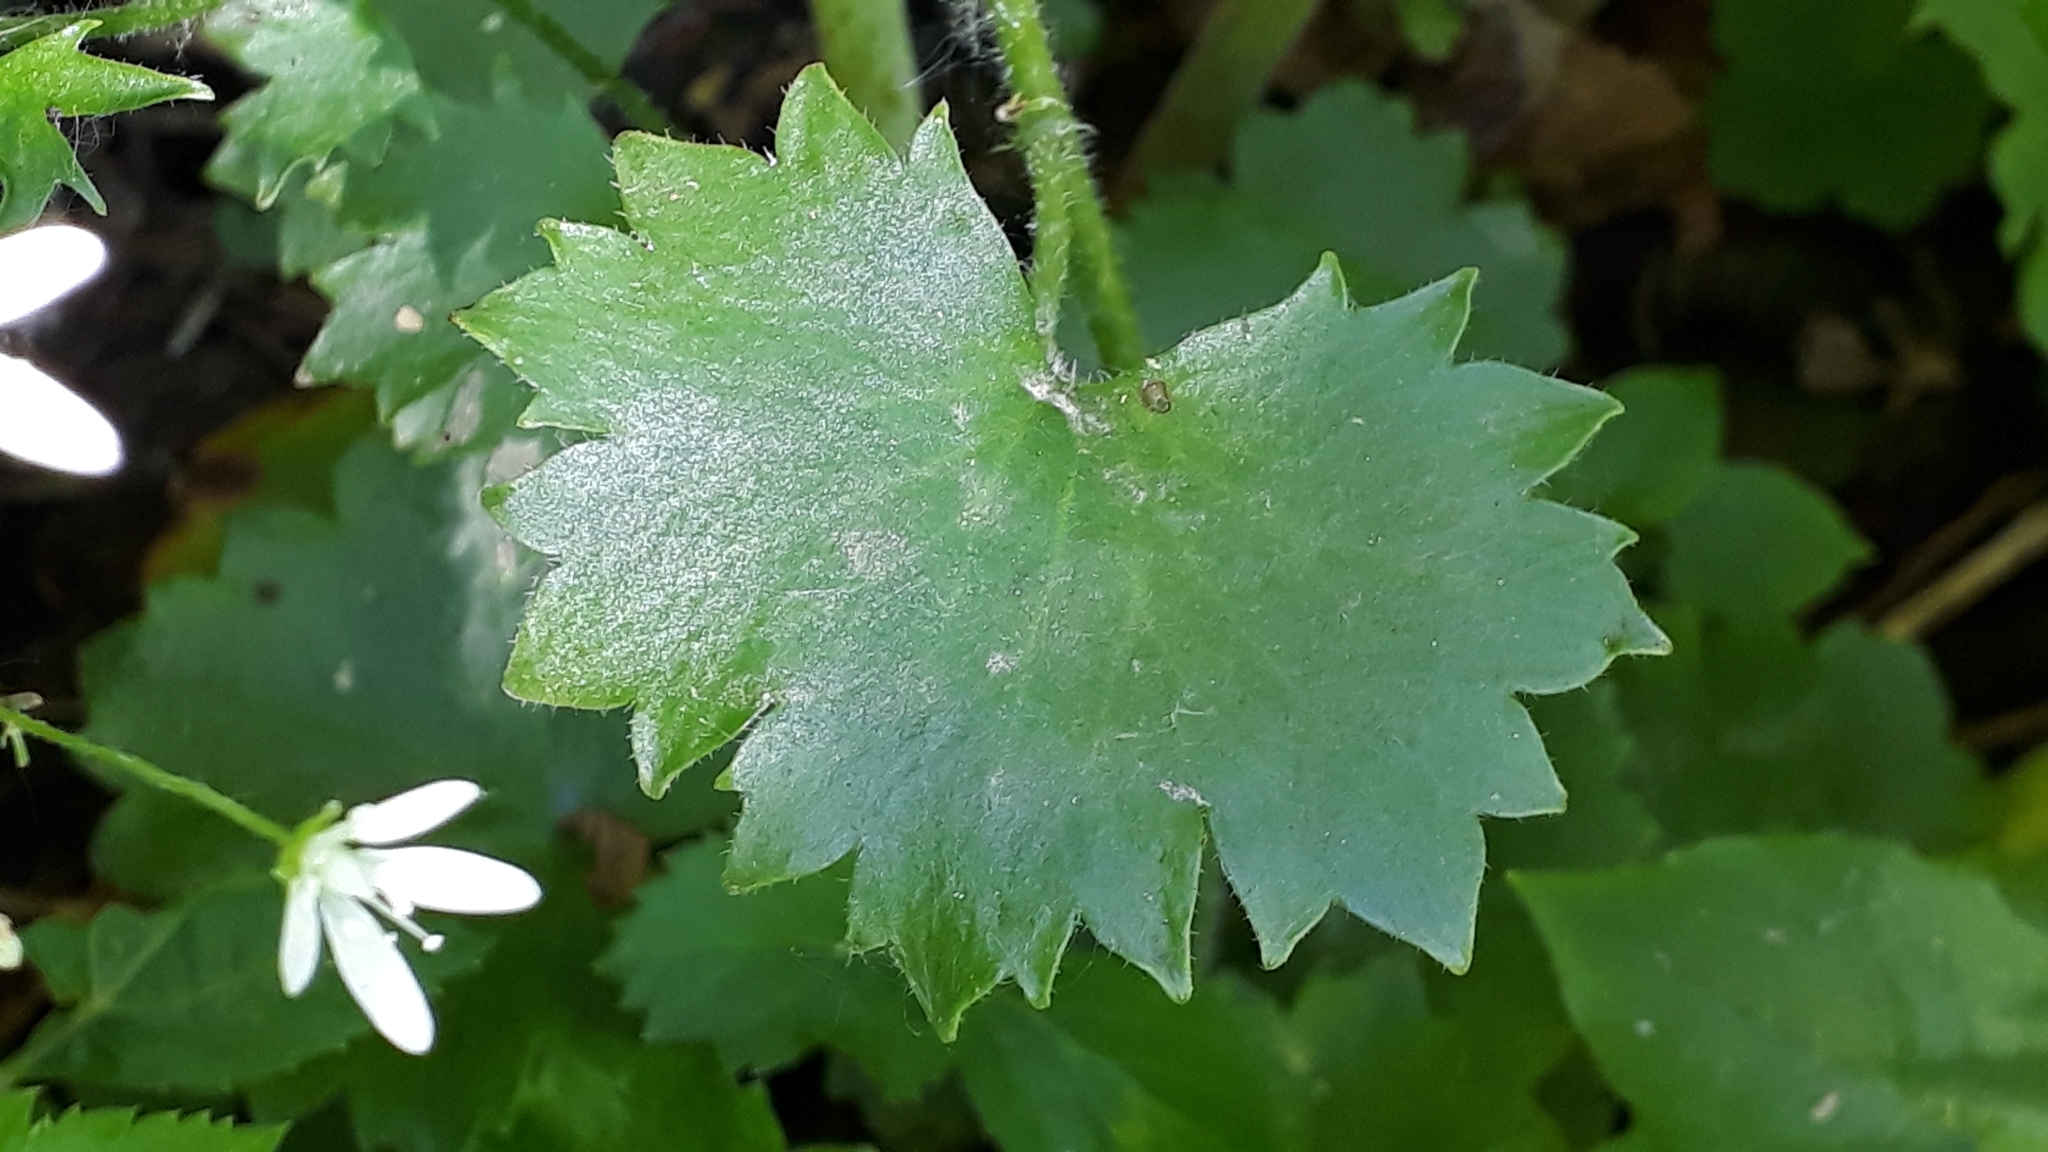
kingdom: Plantae
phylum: Tracheophyta
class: Magnoliopsida
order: Saxifragales
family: Saxifragaceae
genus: Saxifraga
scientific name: Saxifraga rotundifolia
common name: Round-leaved saxifrage
